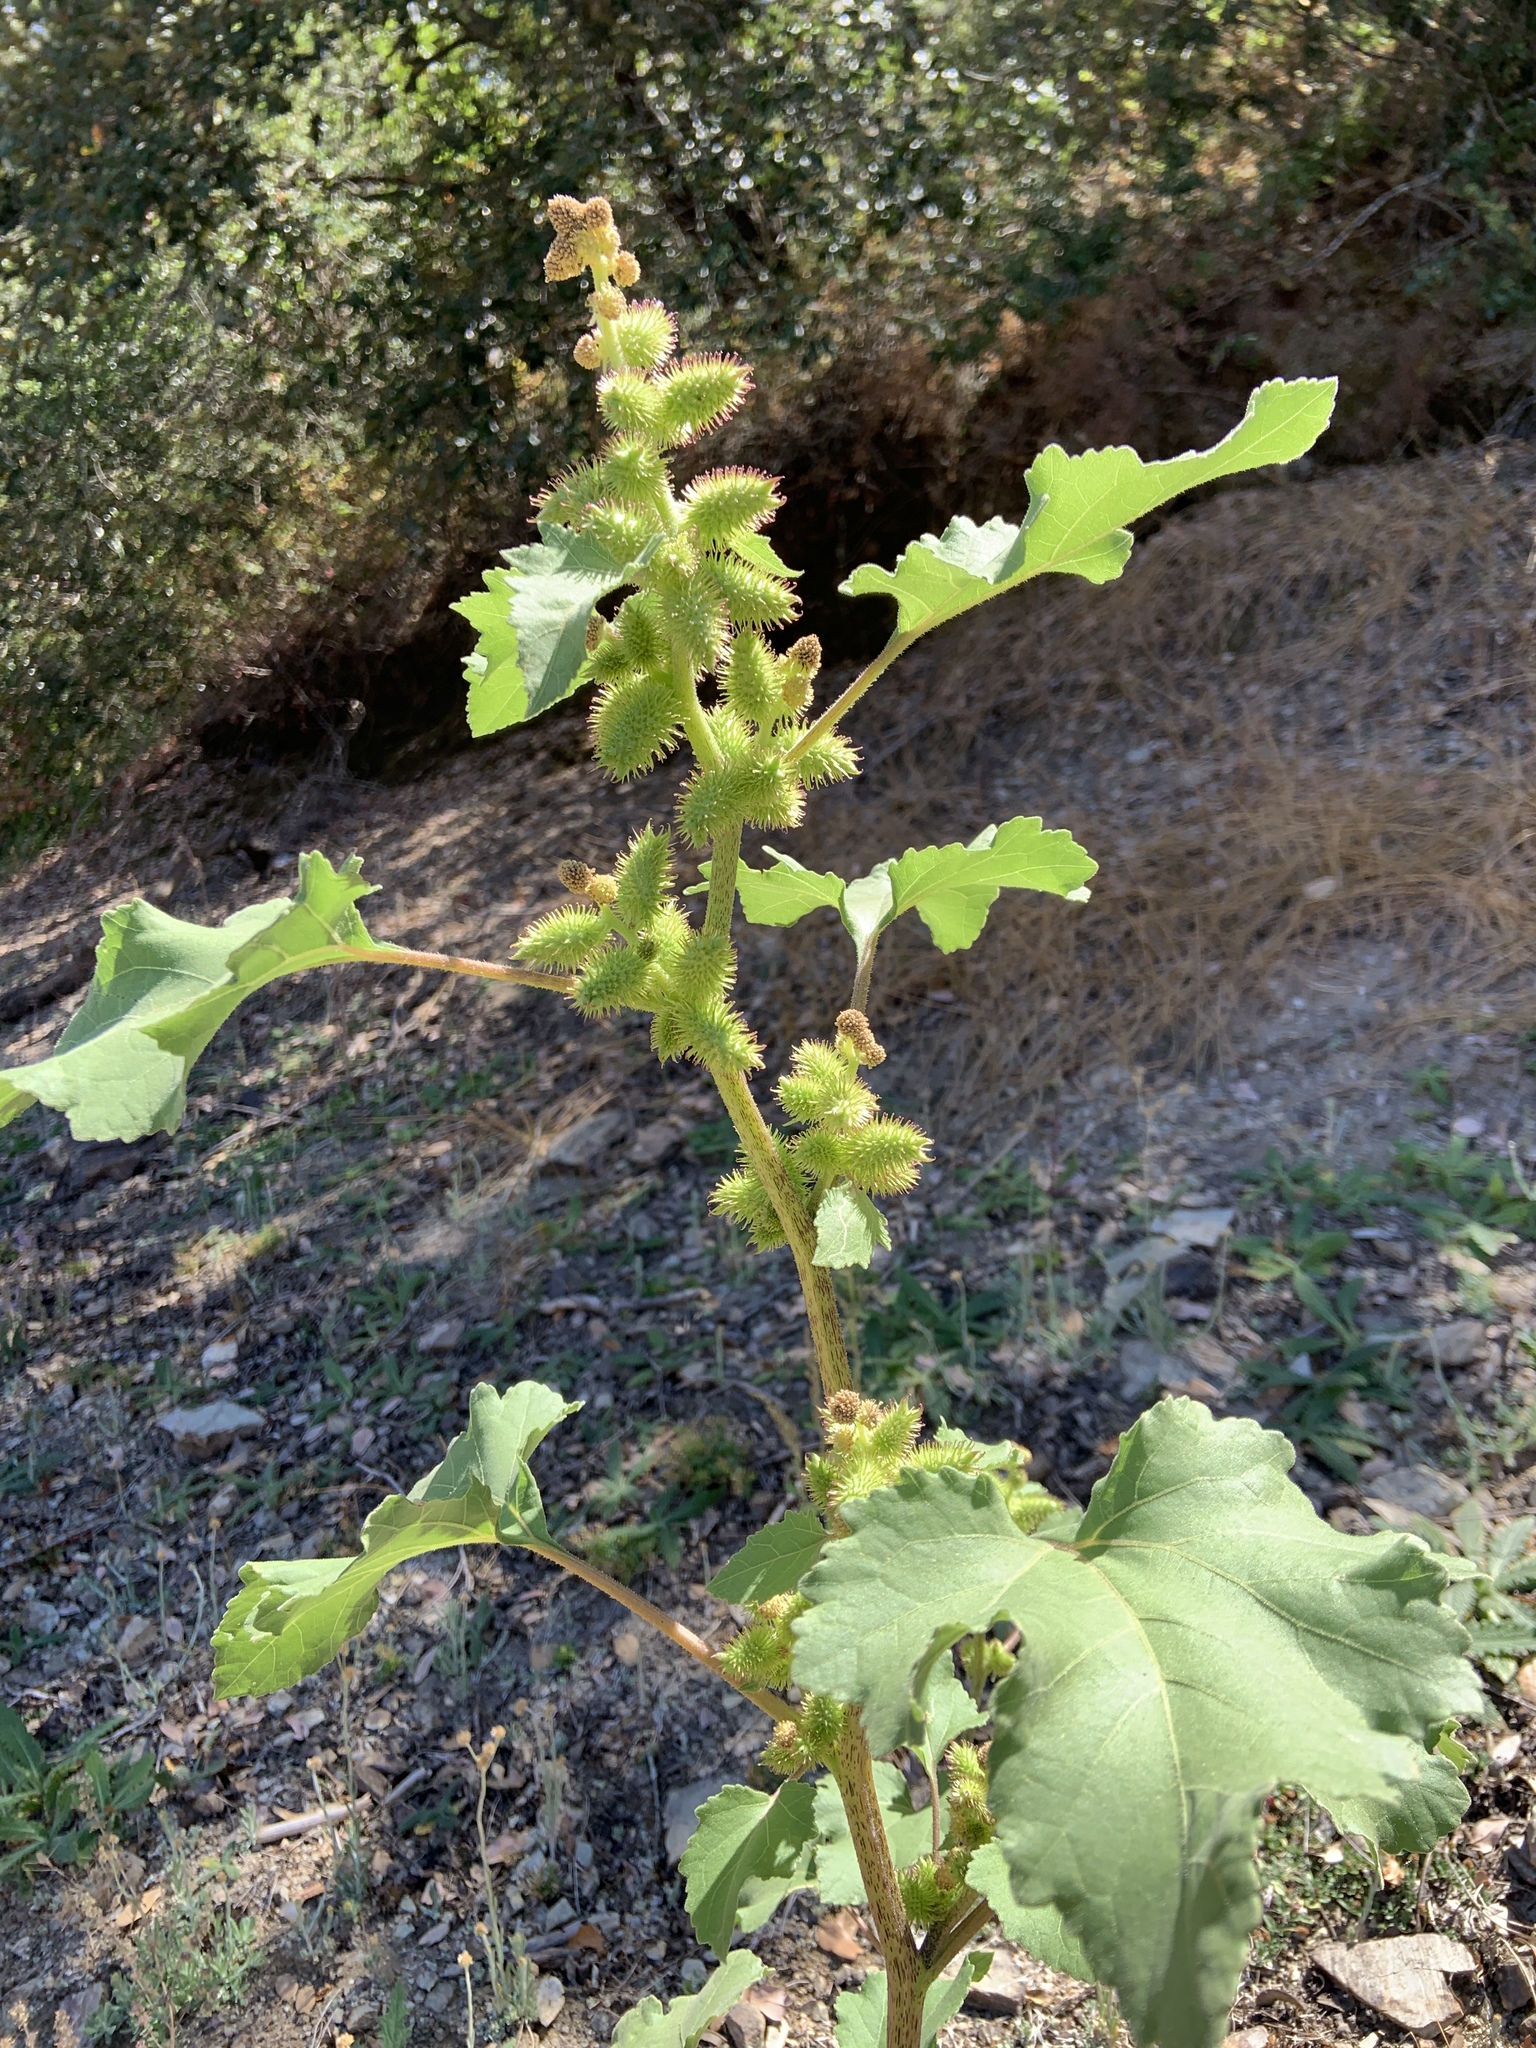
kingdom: Plantae
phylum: Tracheophyta
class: Magnoliopsida
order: Asterales
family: Asteraceae
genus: Xanthium
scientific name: Xanthium strumarium
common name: Rough cocklebur
